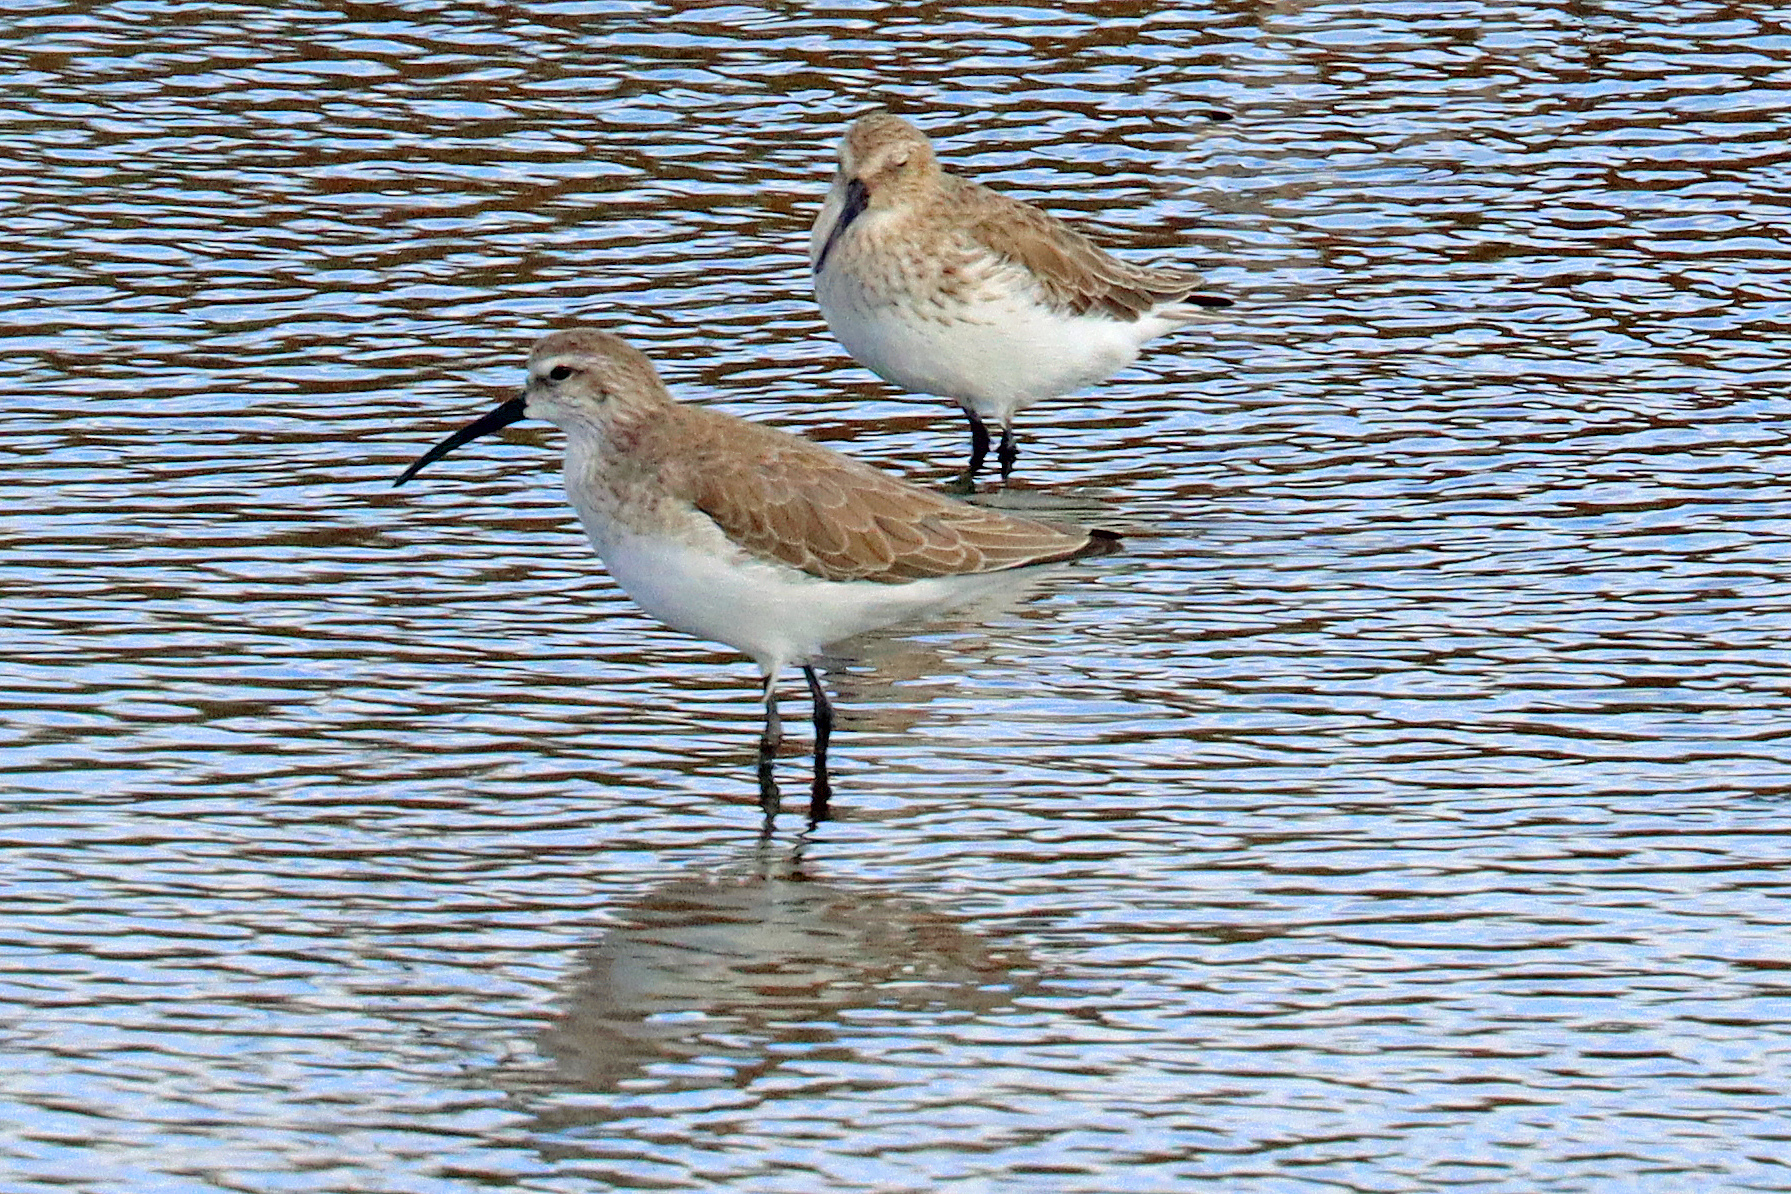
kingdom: Animalia
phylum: Chordata
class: Aves
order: Charadriiformes
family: Scolopacidae
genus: Calidris
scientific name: Calidris alpina
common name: Dunlin
